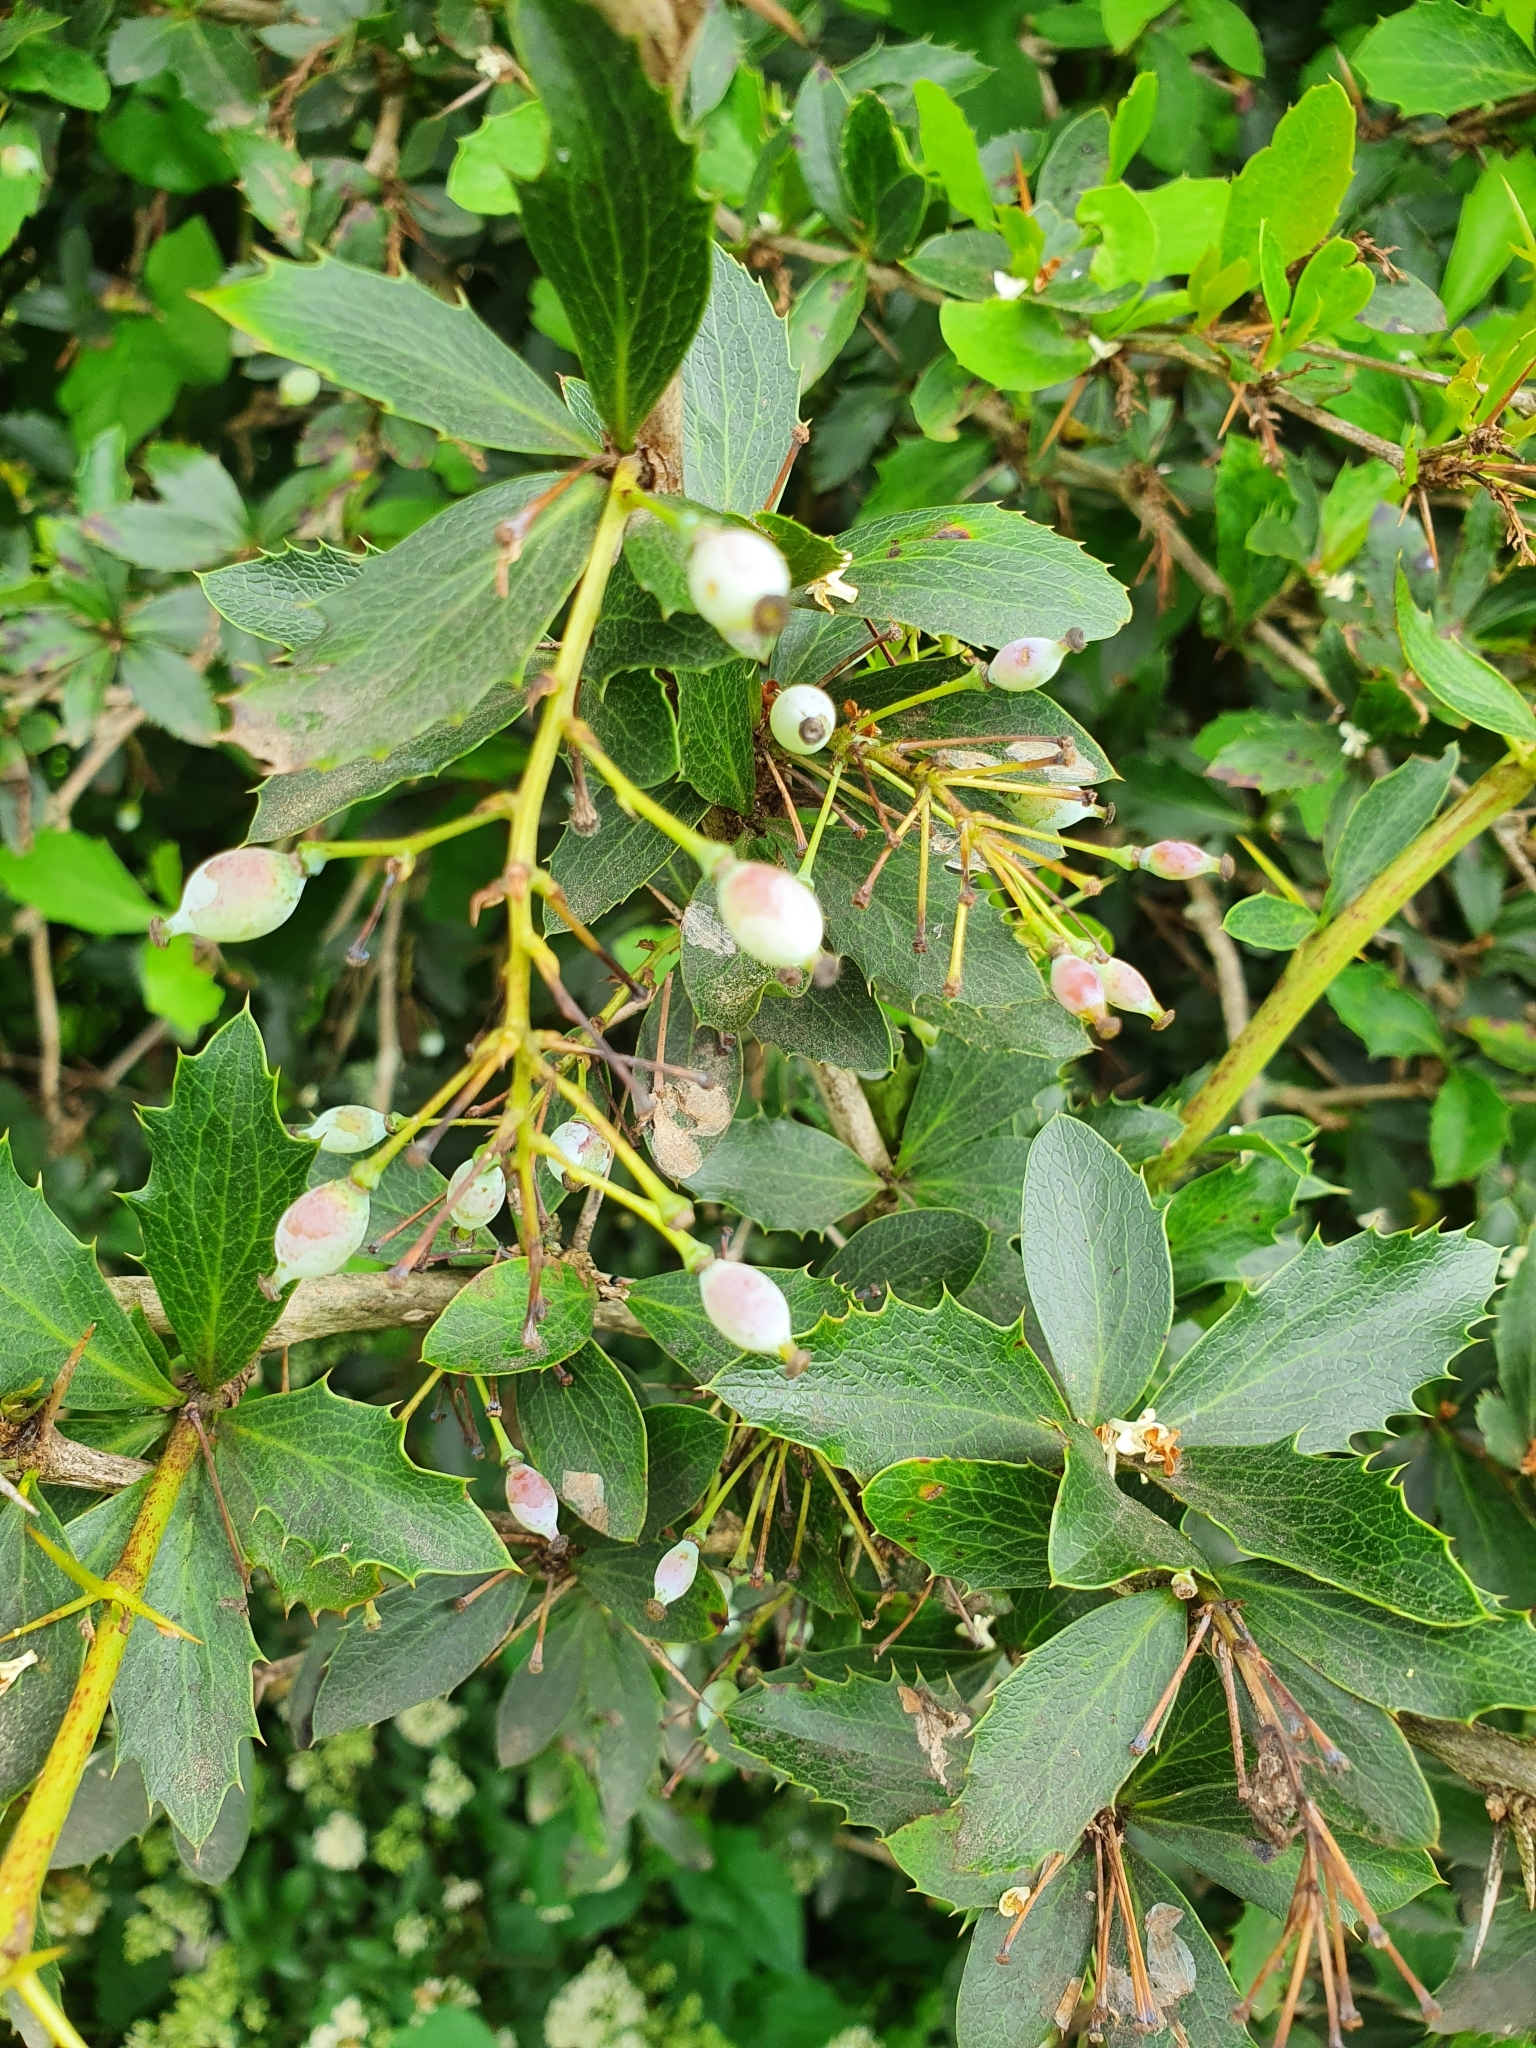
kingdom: Plantae
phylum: Tracheophyta
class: Magnoliopsida
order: Ranunculales
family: Berberidaceae
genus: Berberis
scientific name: Berberis glaucocarpa
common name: Great barberry
